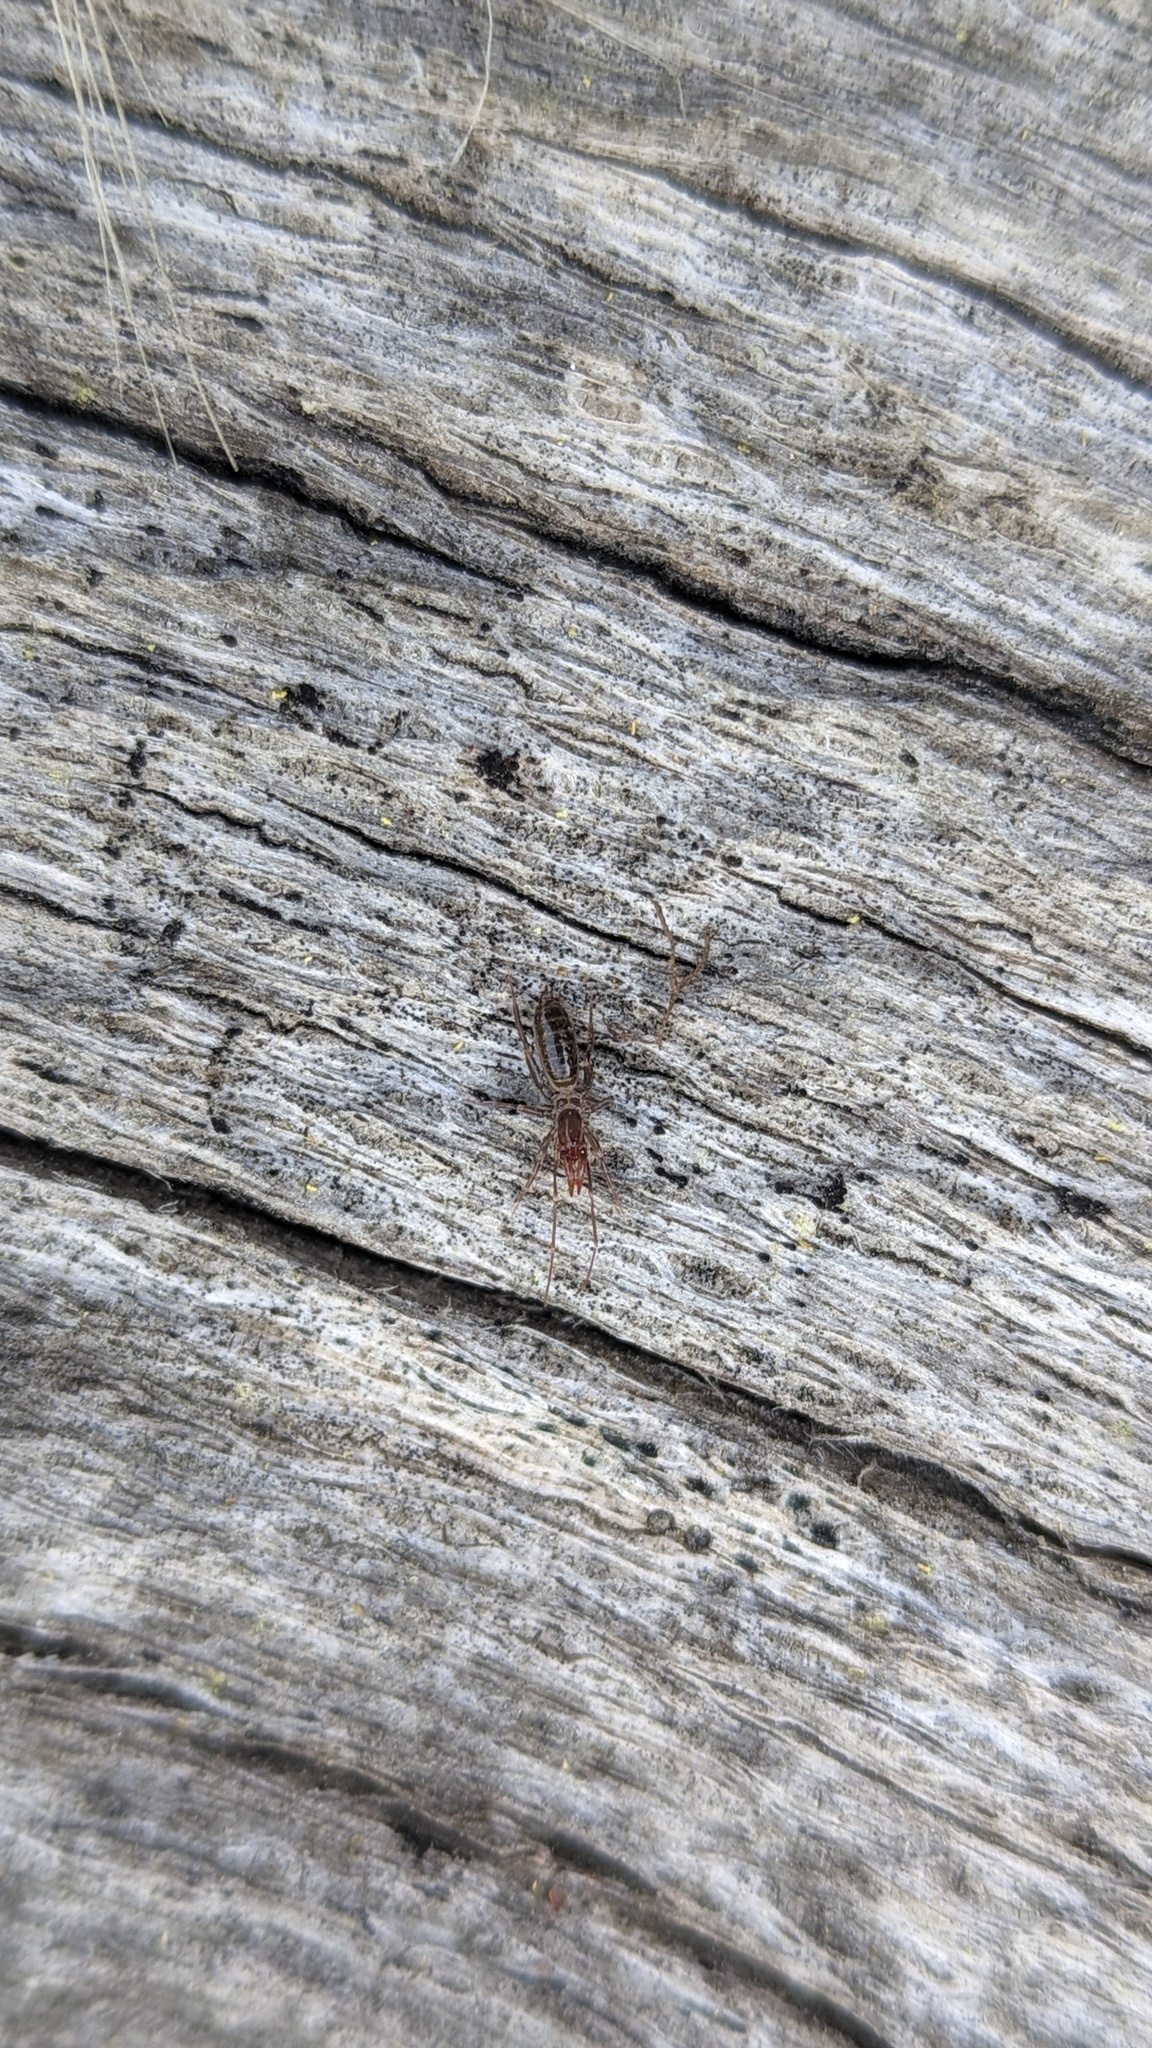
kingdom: Animalia
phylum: Arthropoda
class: Arachnida
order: Schizomida
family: Hubbardiidae
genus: Hubbardia
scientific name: Hubbardia briggsi
